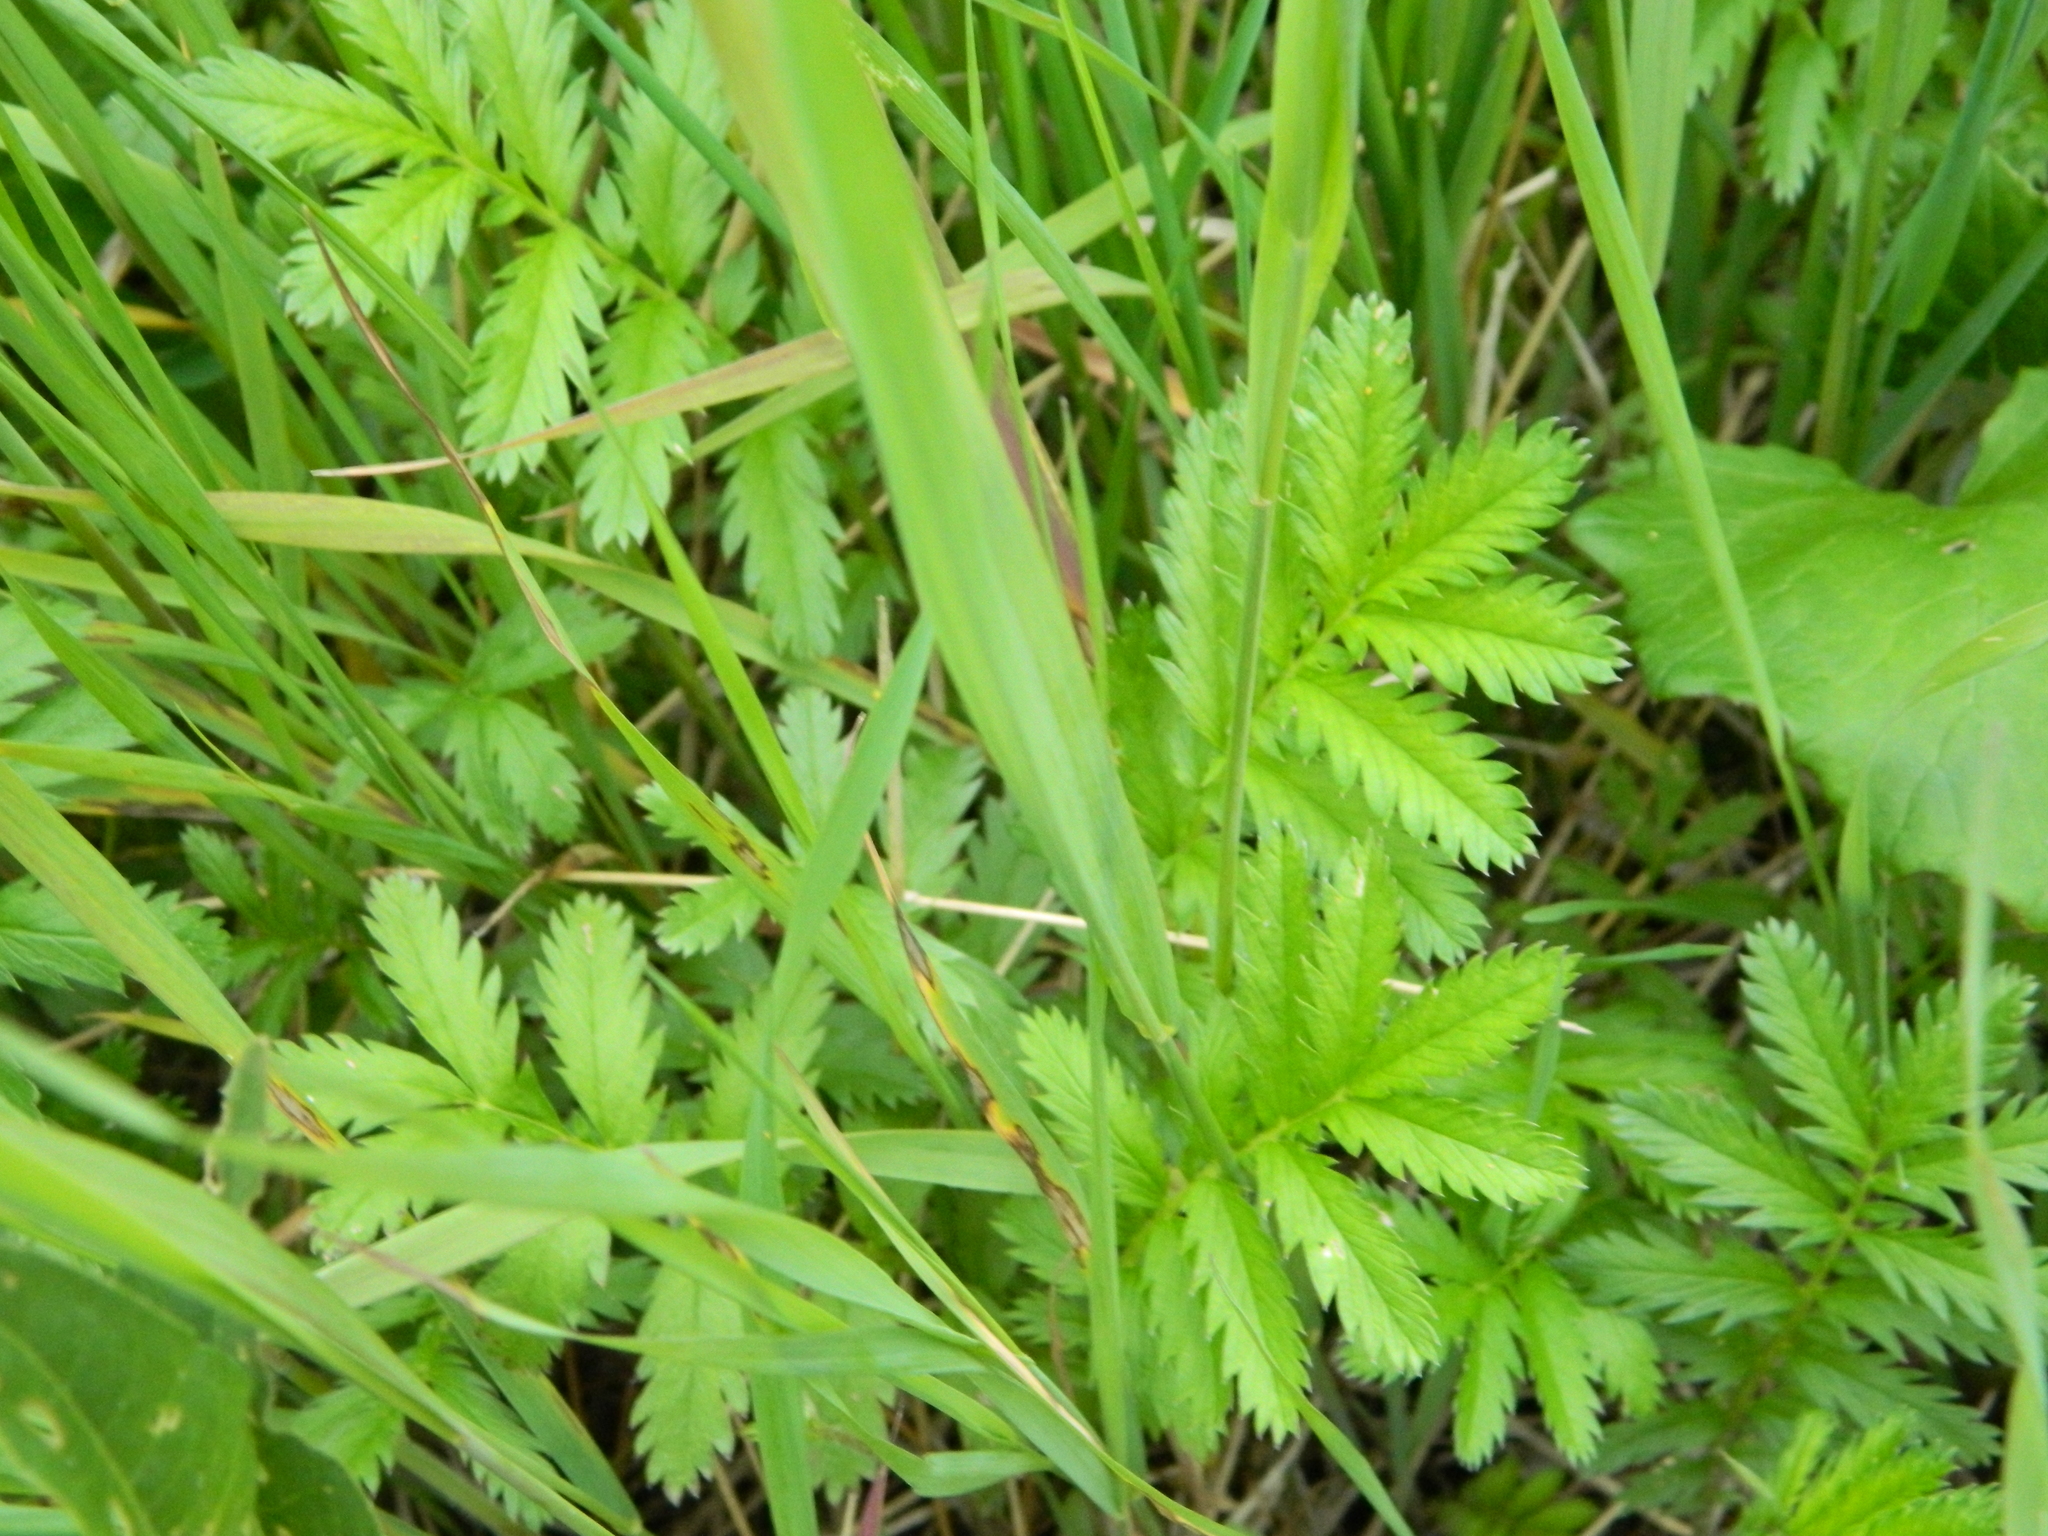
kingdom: Plantae
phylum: Tracheophyta
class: Magnoliopsida
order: Rosales
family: Rosaceae
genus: Argentina
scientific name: Argentina anserina
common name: Common silverweed
